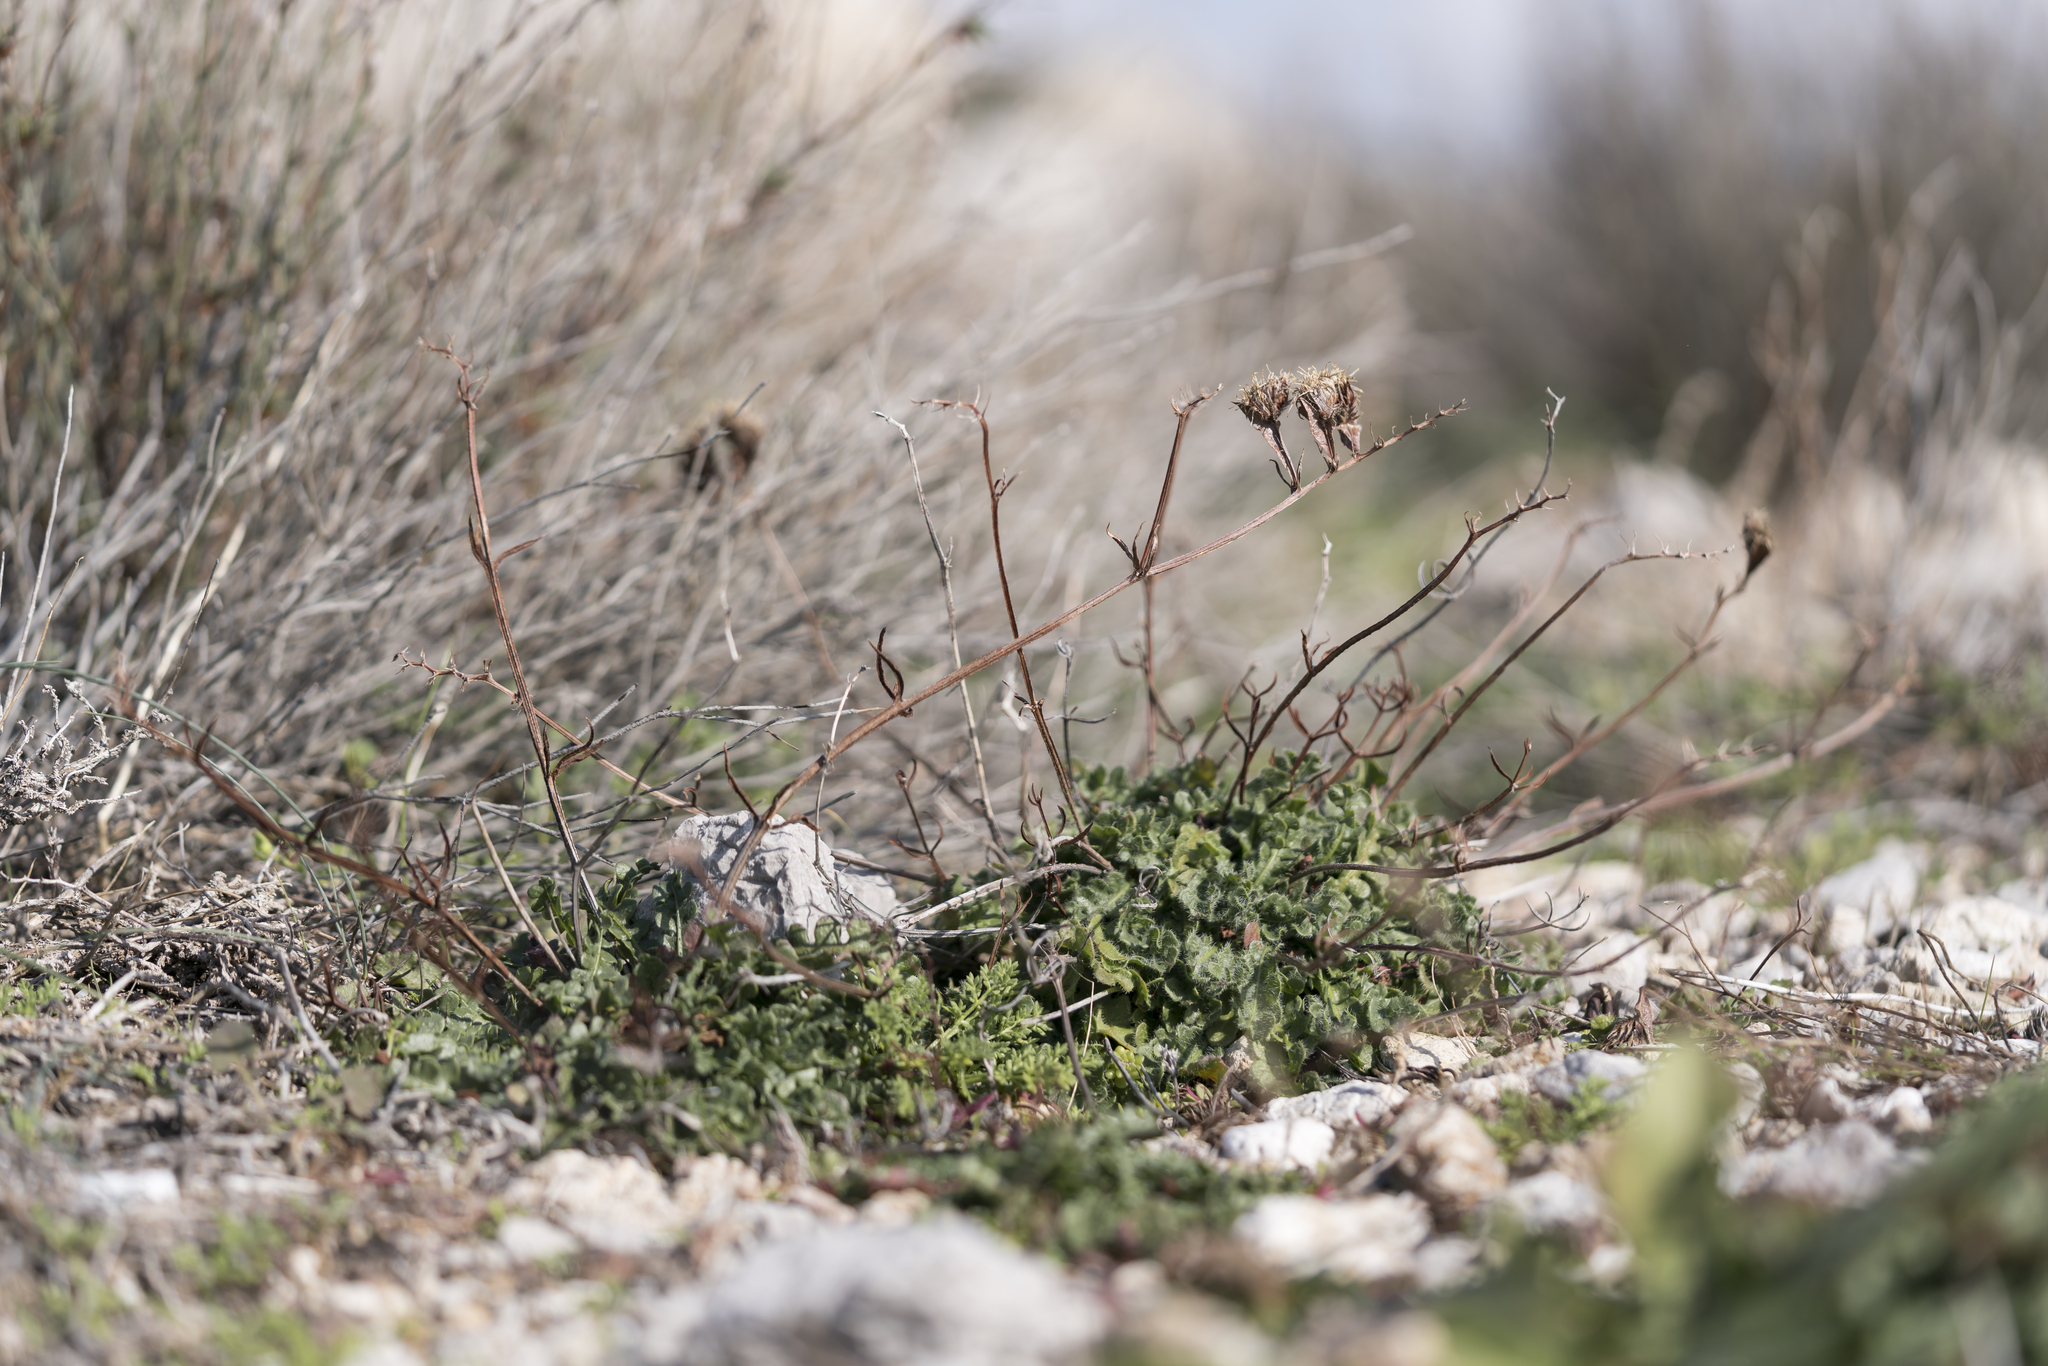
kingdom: Plantae
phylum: Tracheophyta
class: Magnoliopsida
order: Caryophyllales
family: Plumbaginaceae
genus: Limonium
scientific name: Limonium sinuatum
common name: Statice
